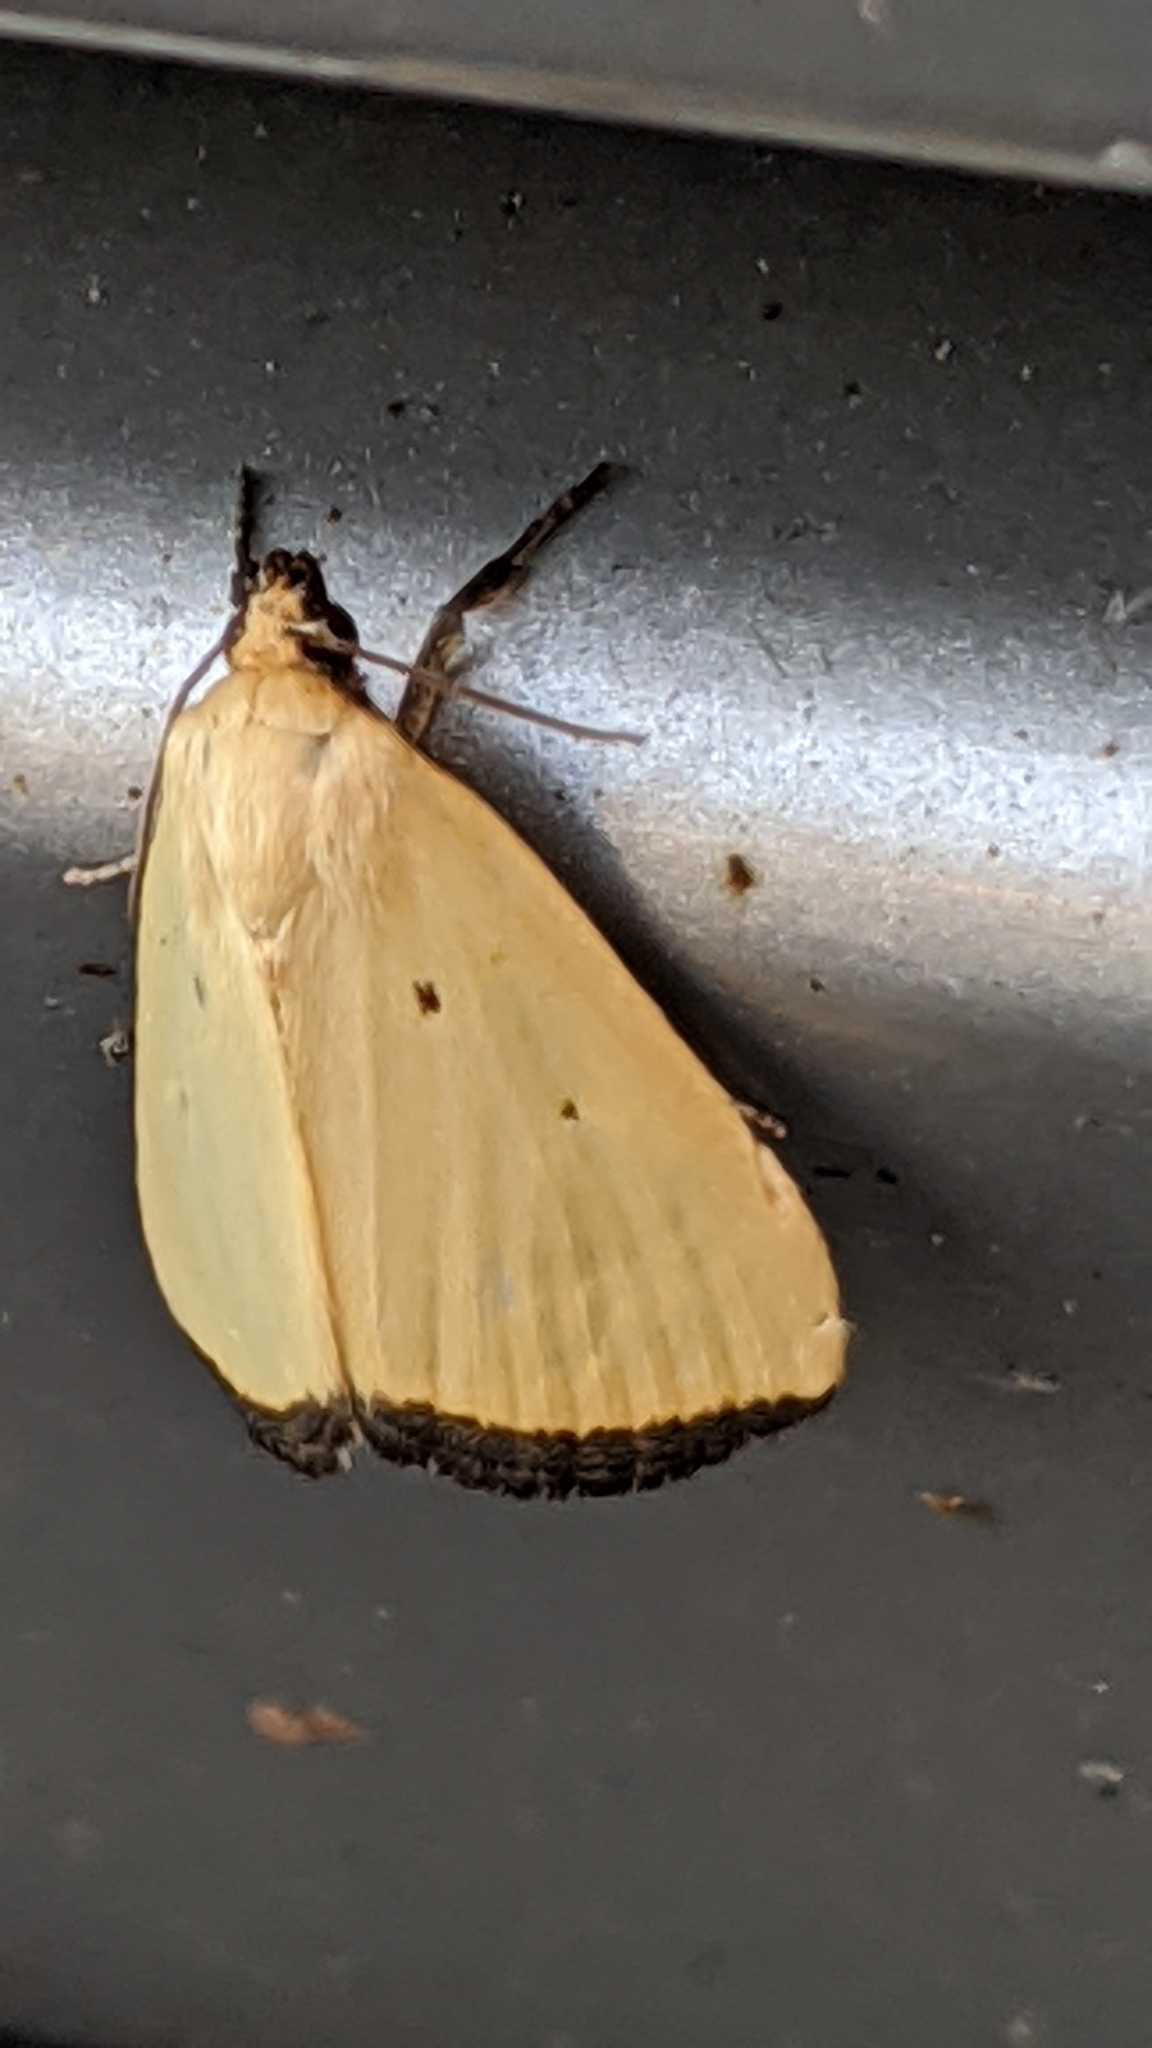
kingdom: Animalia
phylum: Arthropoda
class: Insecta
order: Lepidoptera
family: Noctuidae
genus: Marimatha
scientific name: Marimatha nigrofimbria
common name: Black-bordered lemon moth
